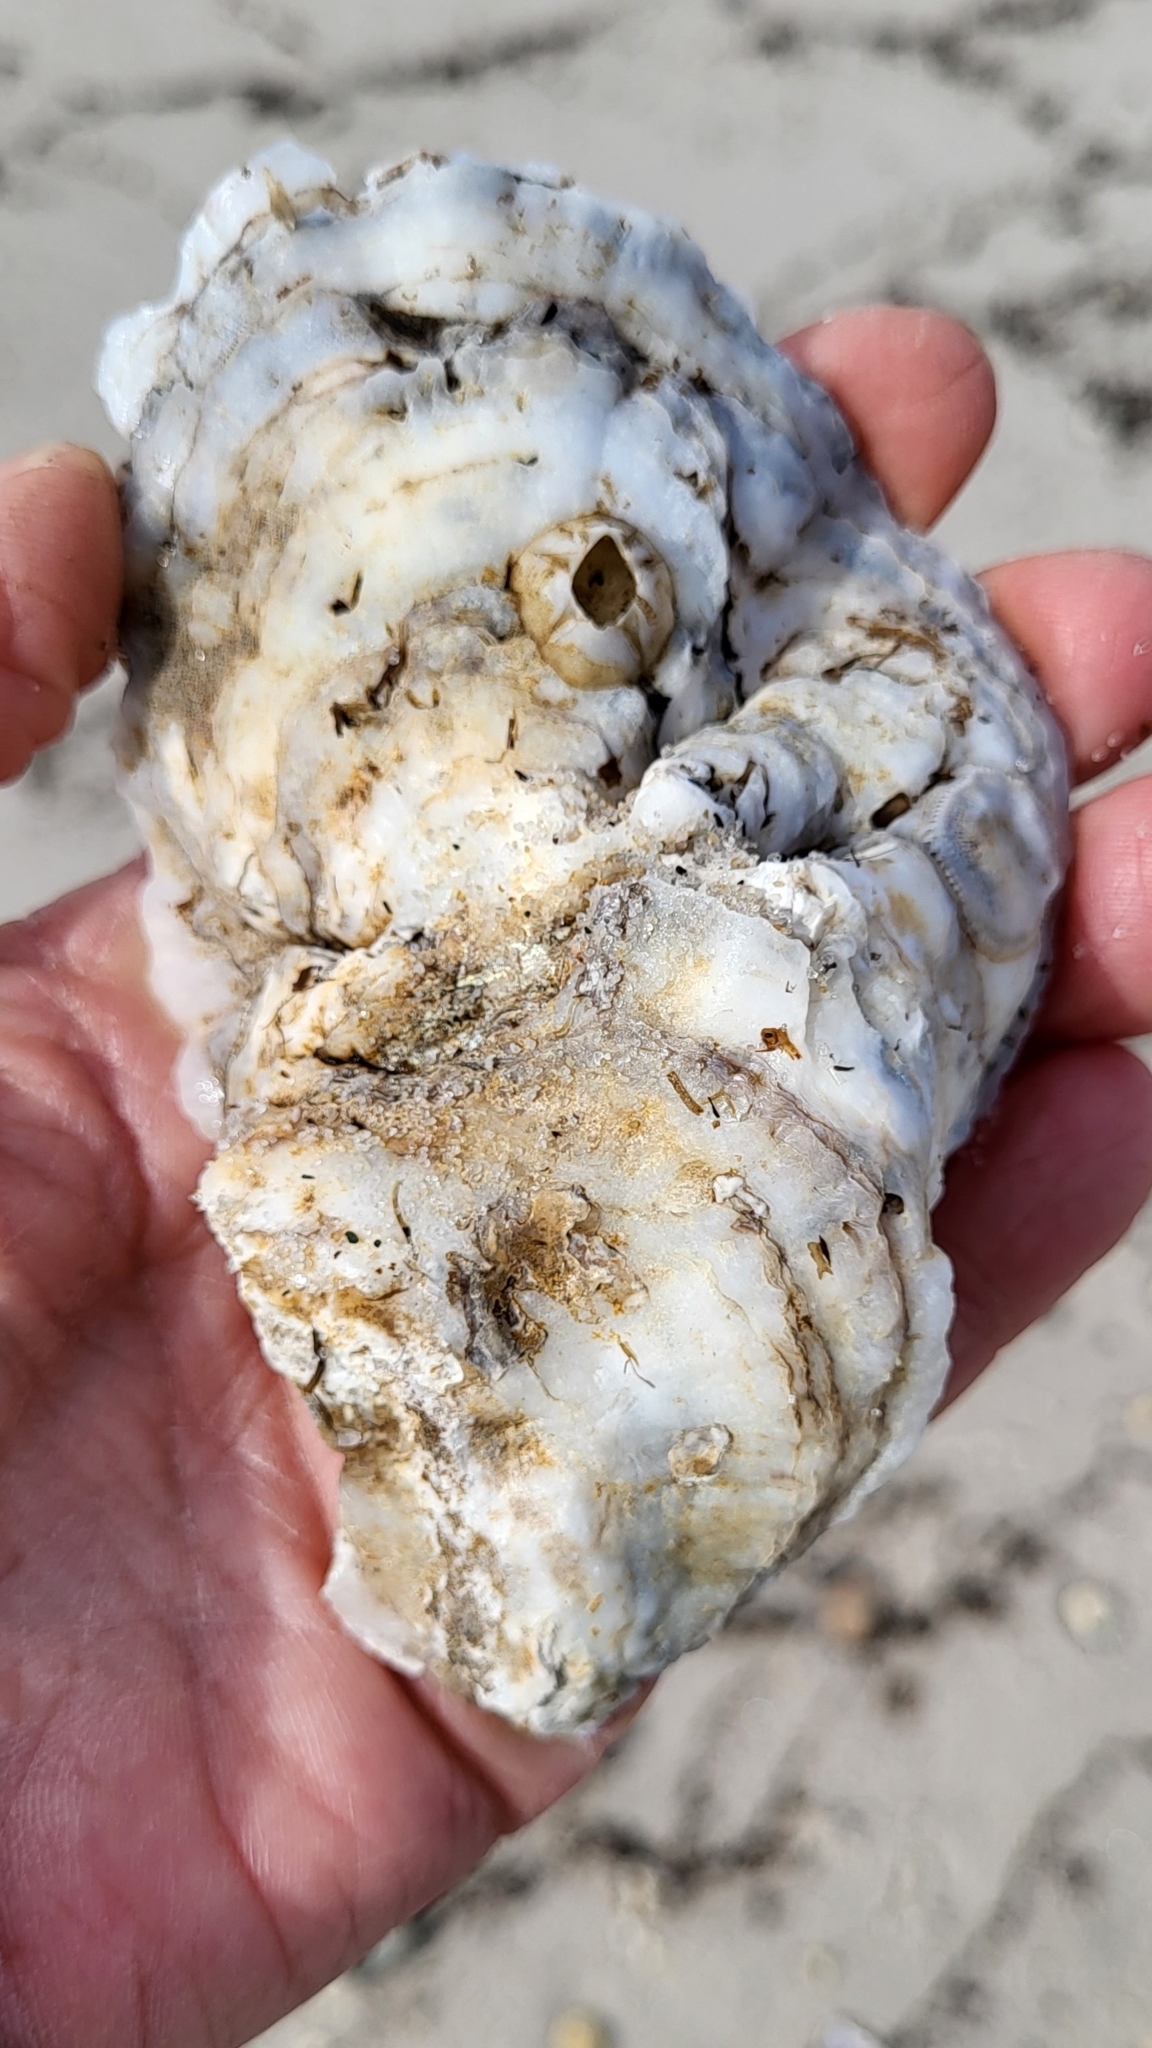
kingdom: Animalia
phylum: Mollusca
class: Bivalvia
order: Ostreida
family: Ostreidae
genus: Crassostrea
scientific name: Crassostrea virginica
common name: American oyster
